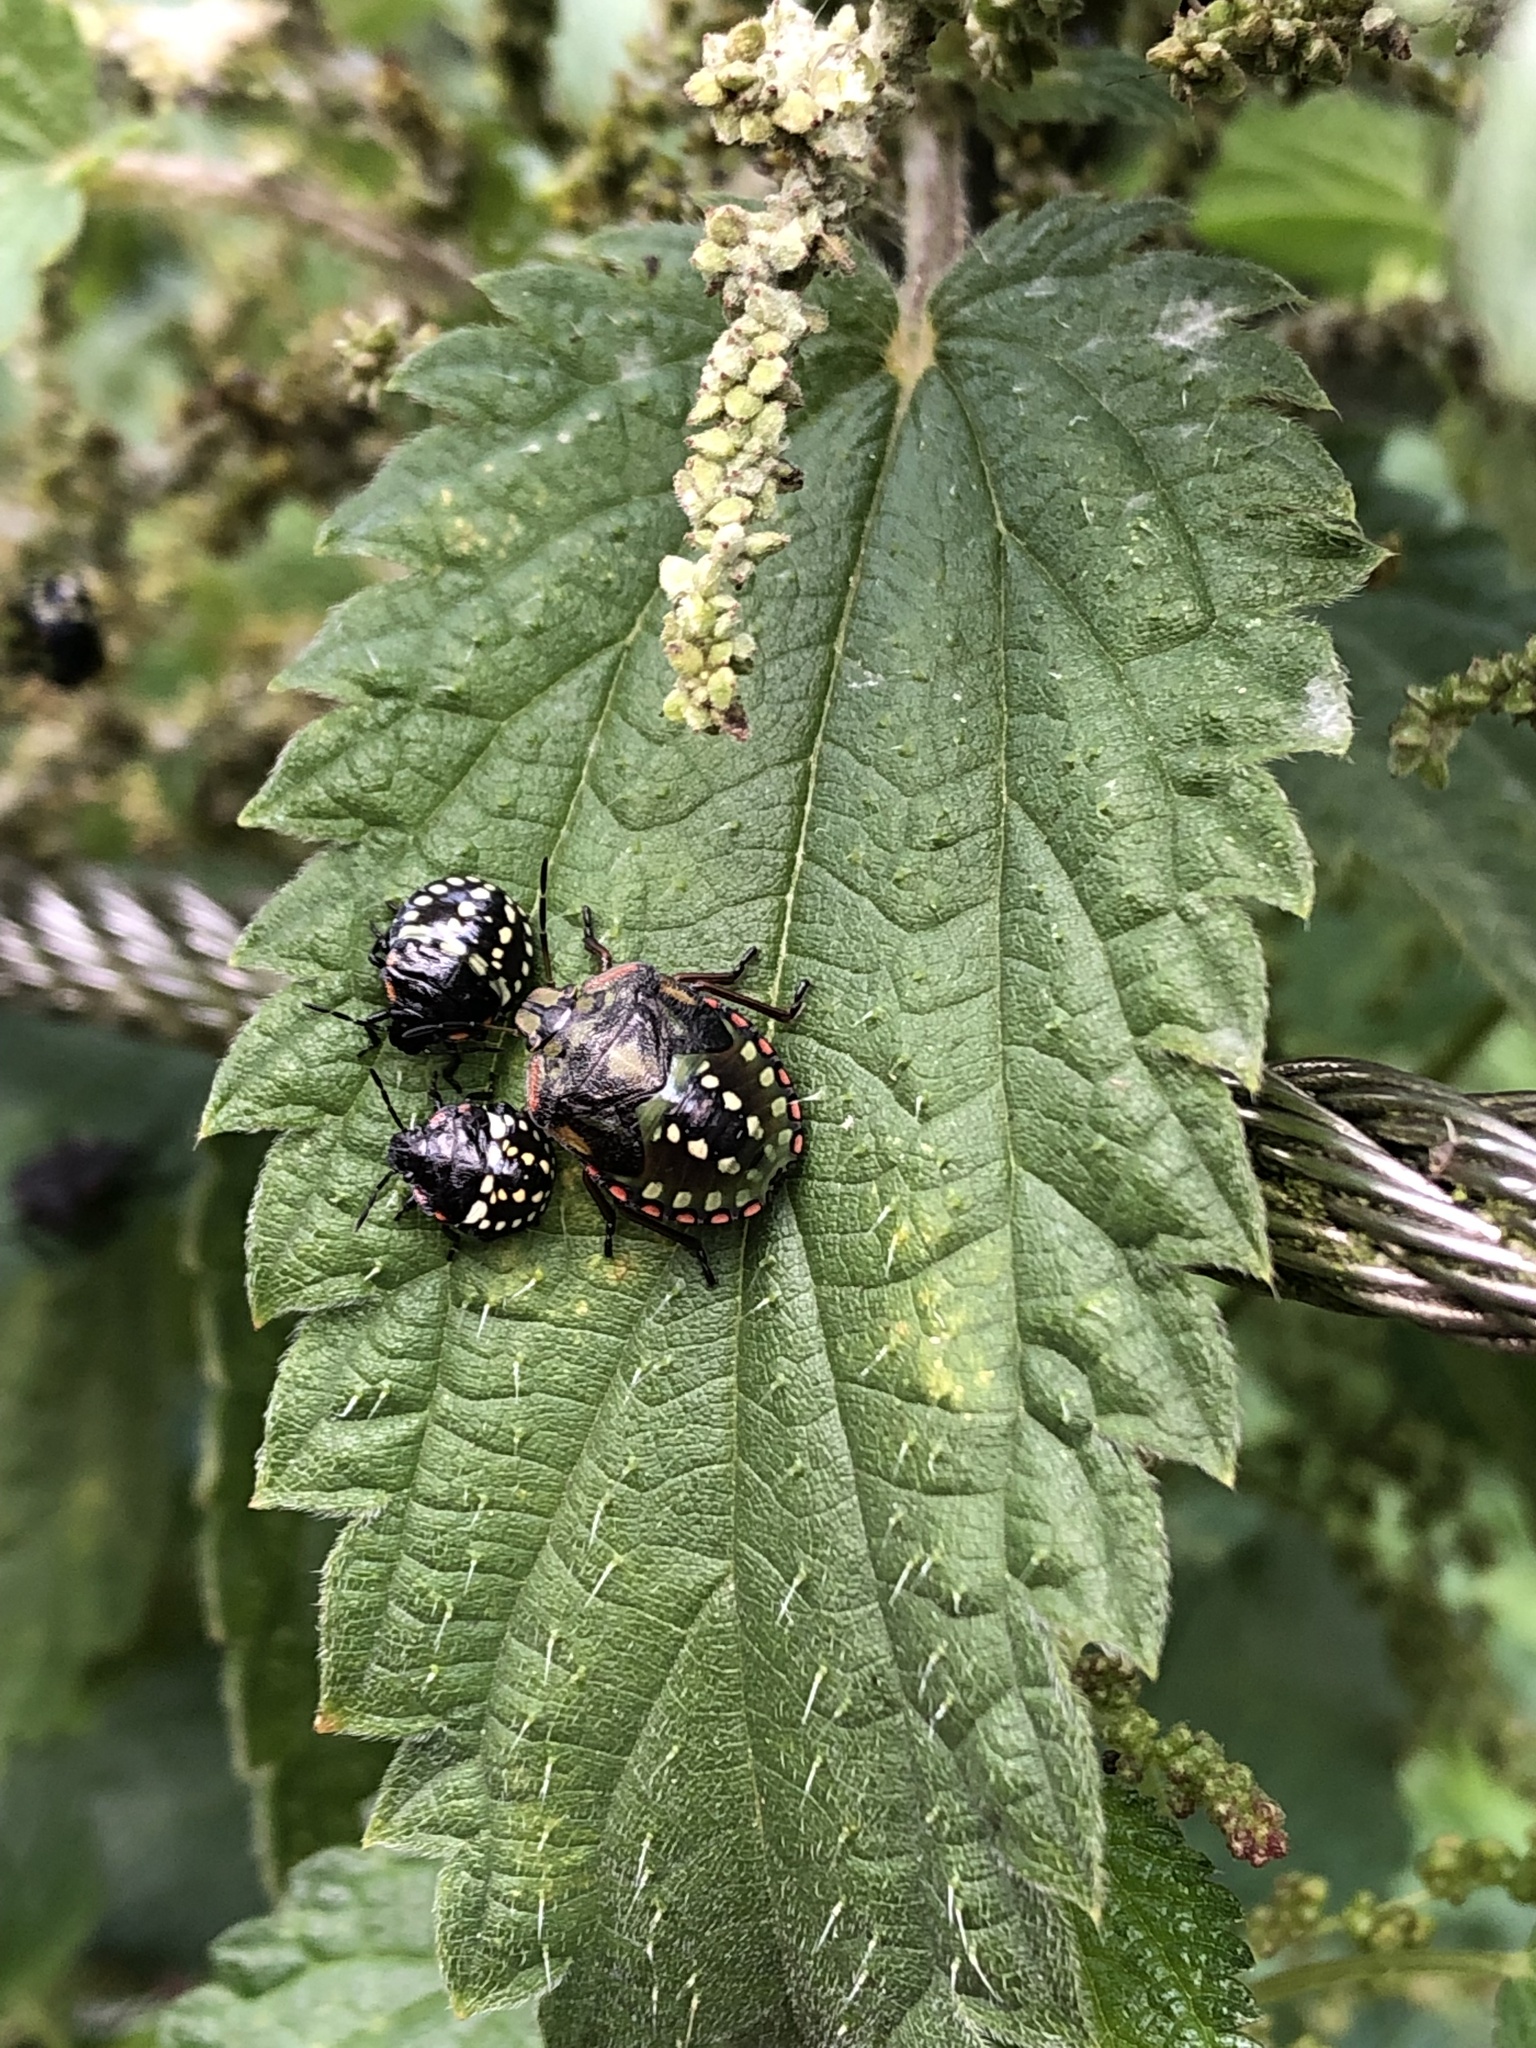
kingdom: Animalia
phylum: Arthropoda
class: Insecta
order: Hemiptera
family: Pentatomidae
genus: Nezara
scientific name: Nezara viridula
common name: Southern green stink bug
